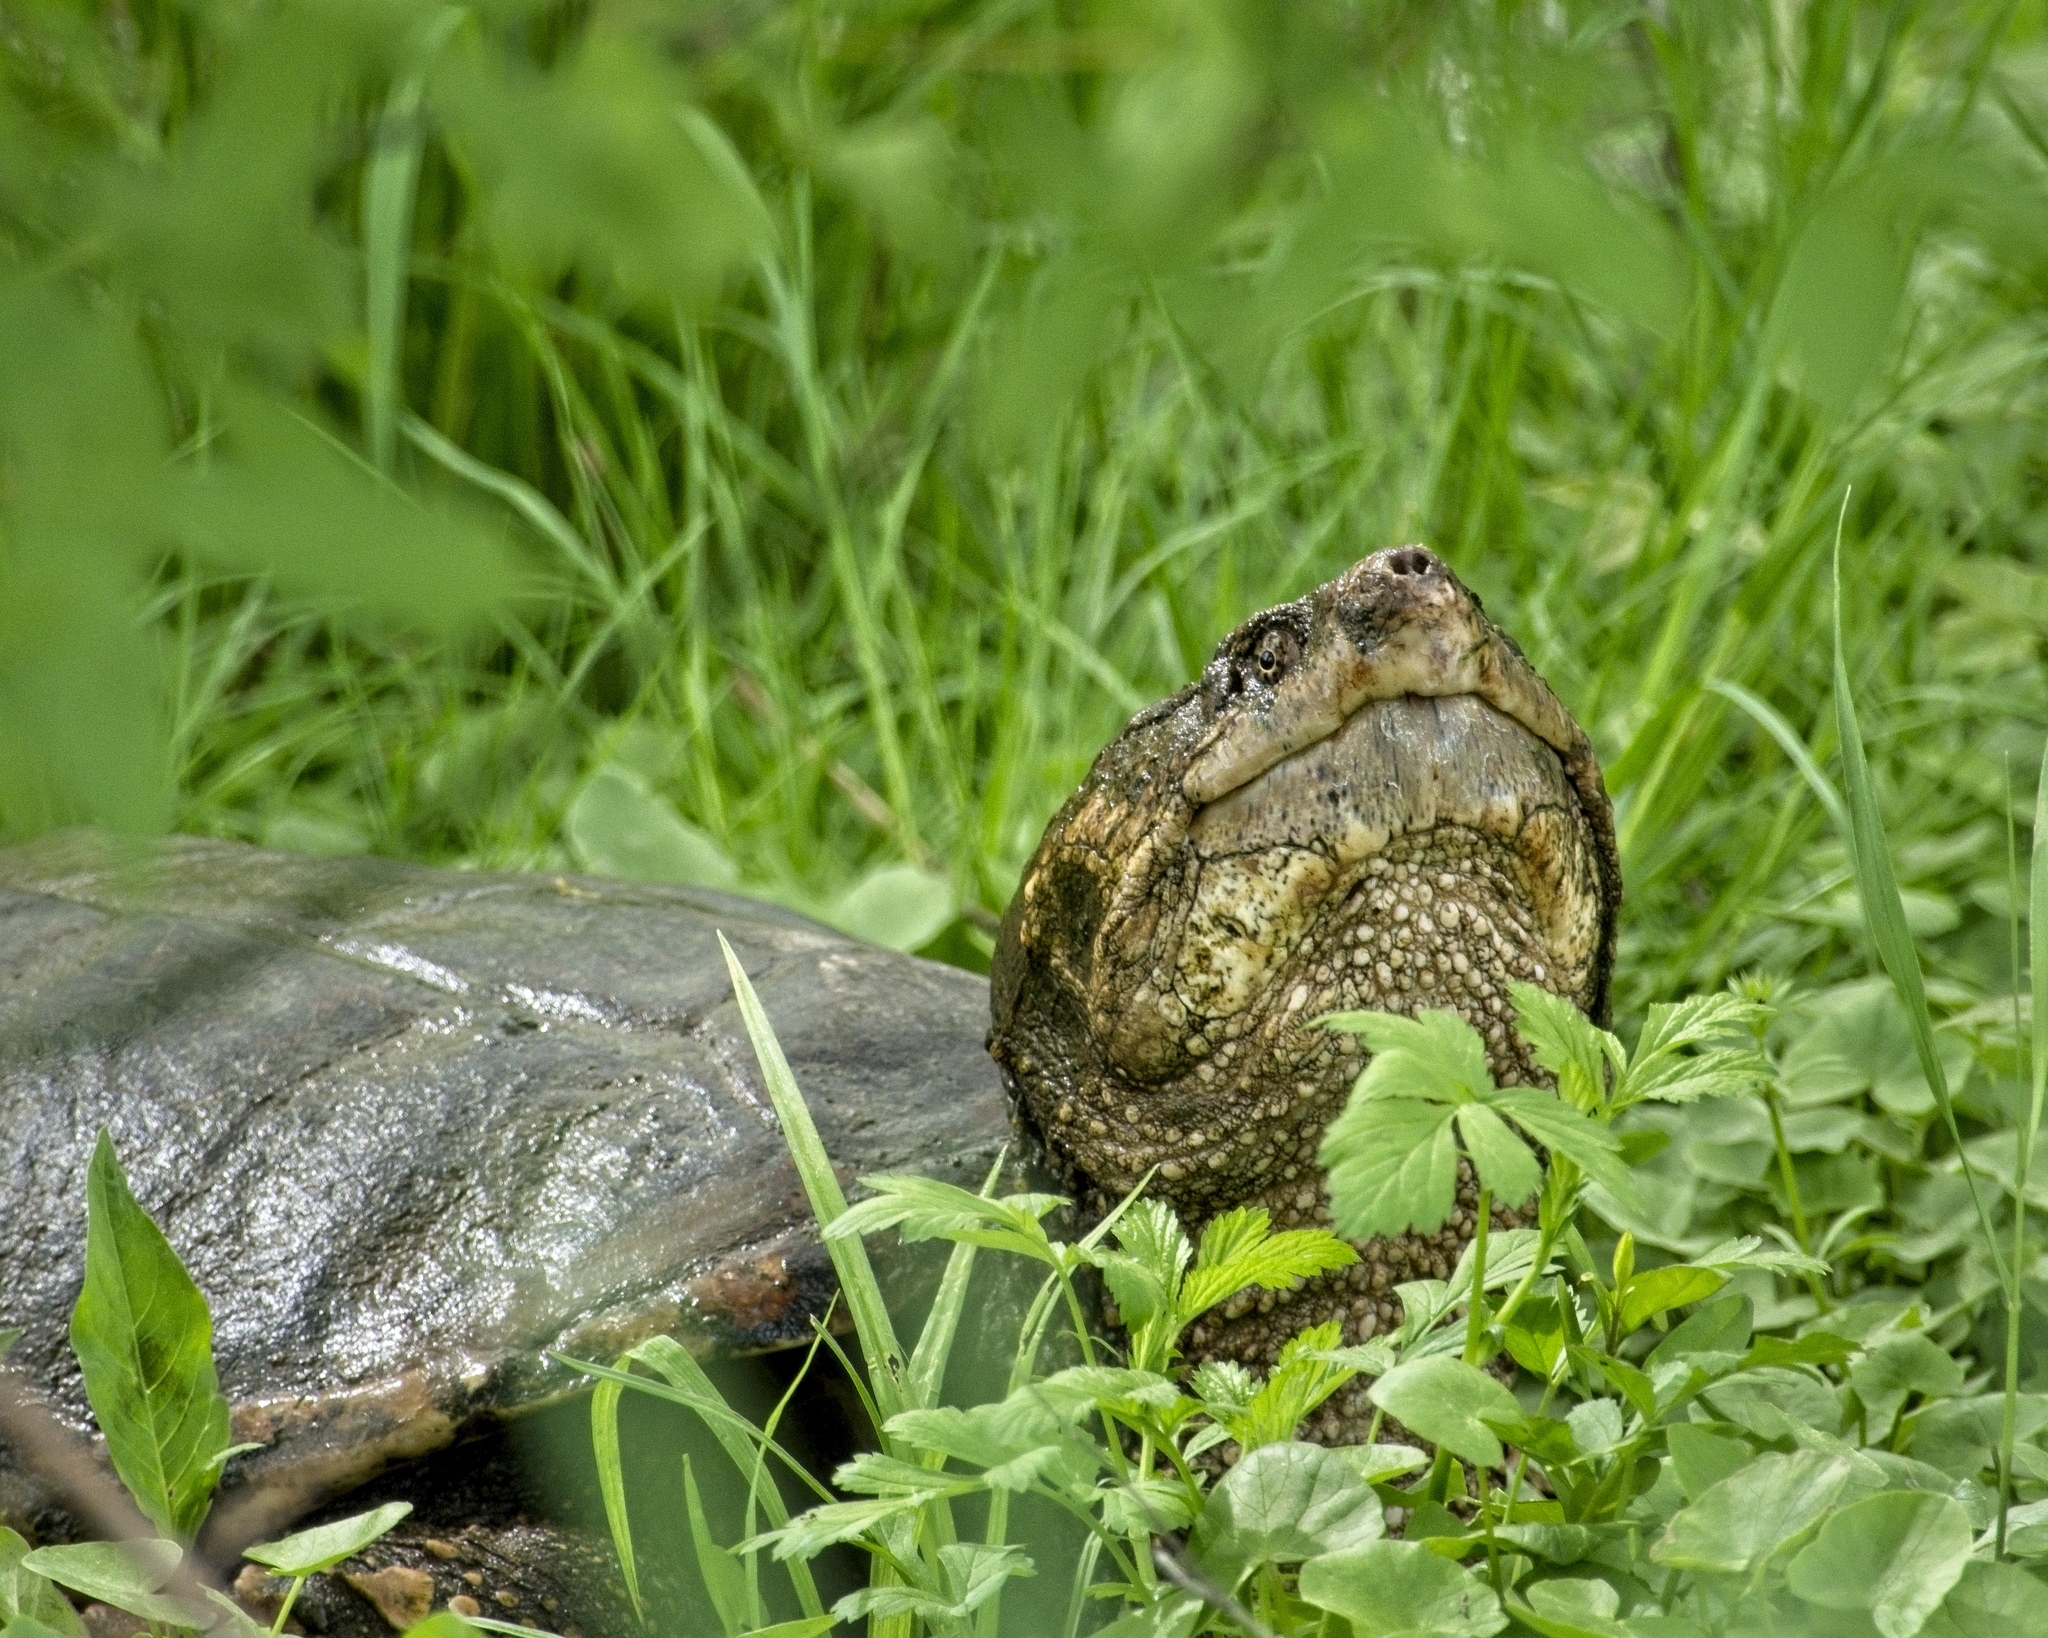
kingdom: Animalia
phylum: Chordata
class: Testudines
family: Chelydridae
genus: Chelydra
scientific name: Chelydra serpentina
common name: Common snapping turtle
